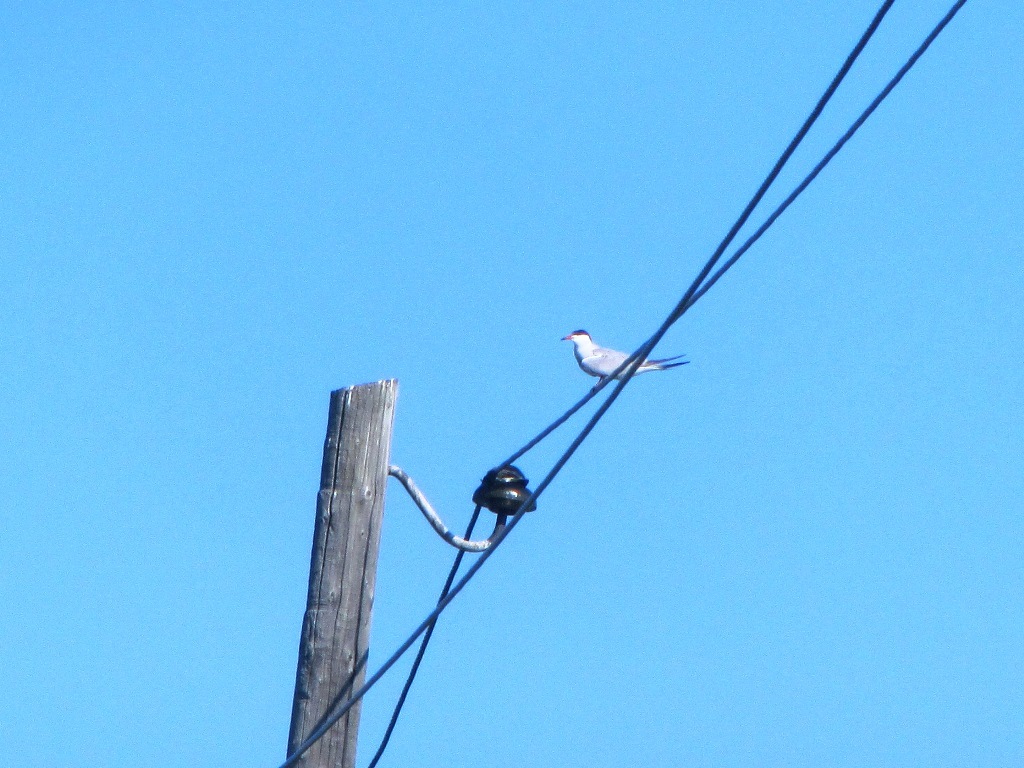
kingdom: Animalia
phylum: Chordata
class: Aves
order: Charadriiformes
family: Laridae
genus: Sterna
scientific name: Sterna hirundo
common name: Common tern
